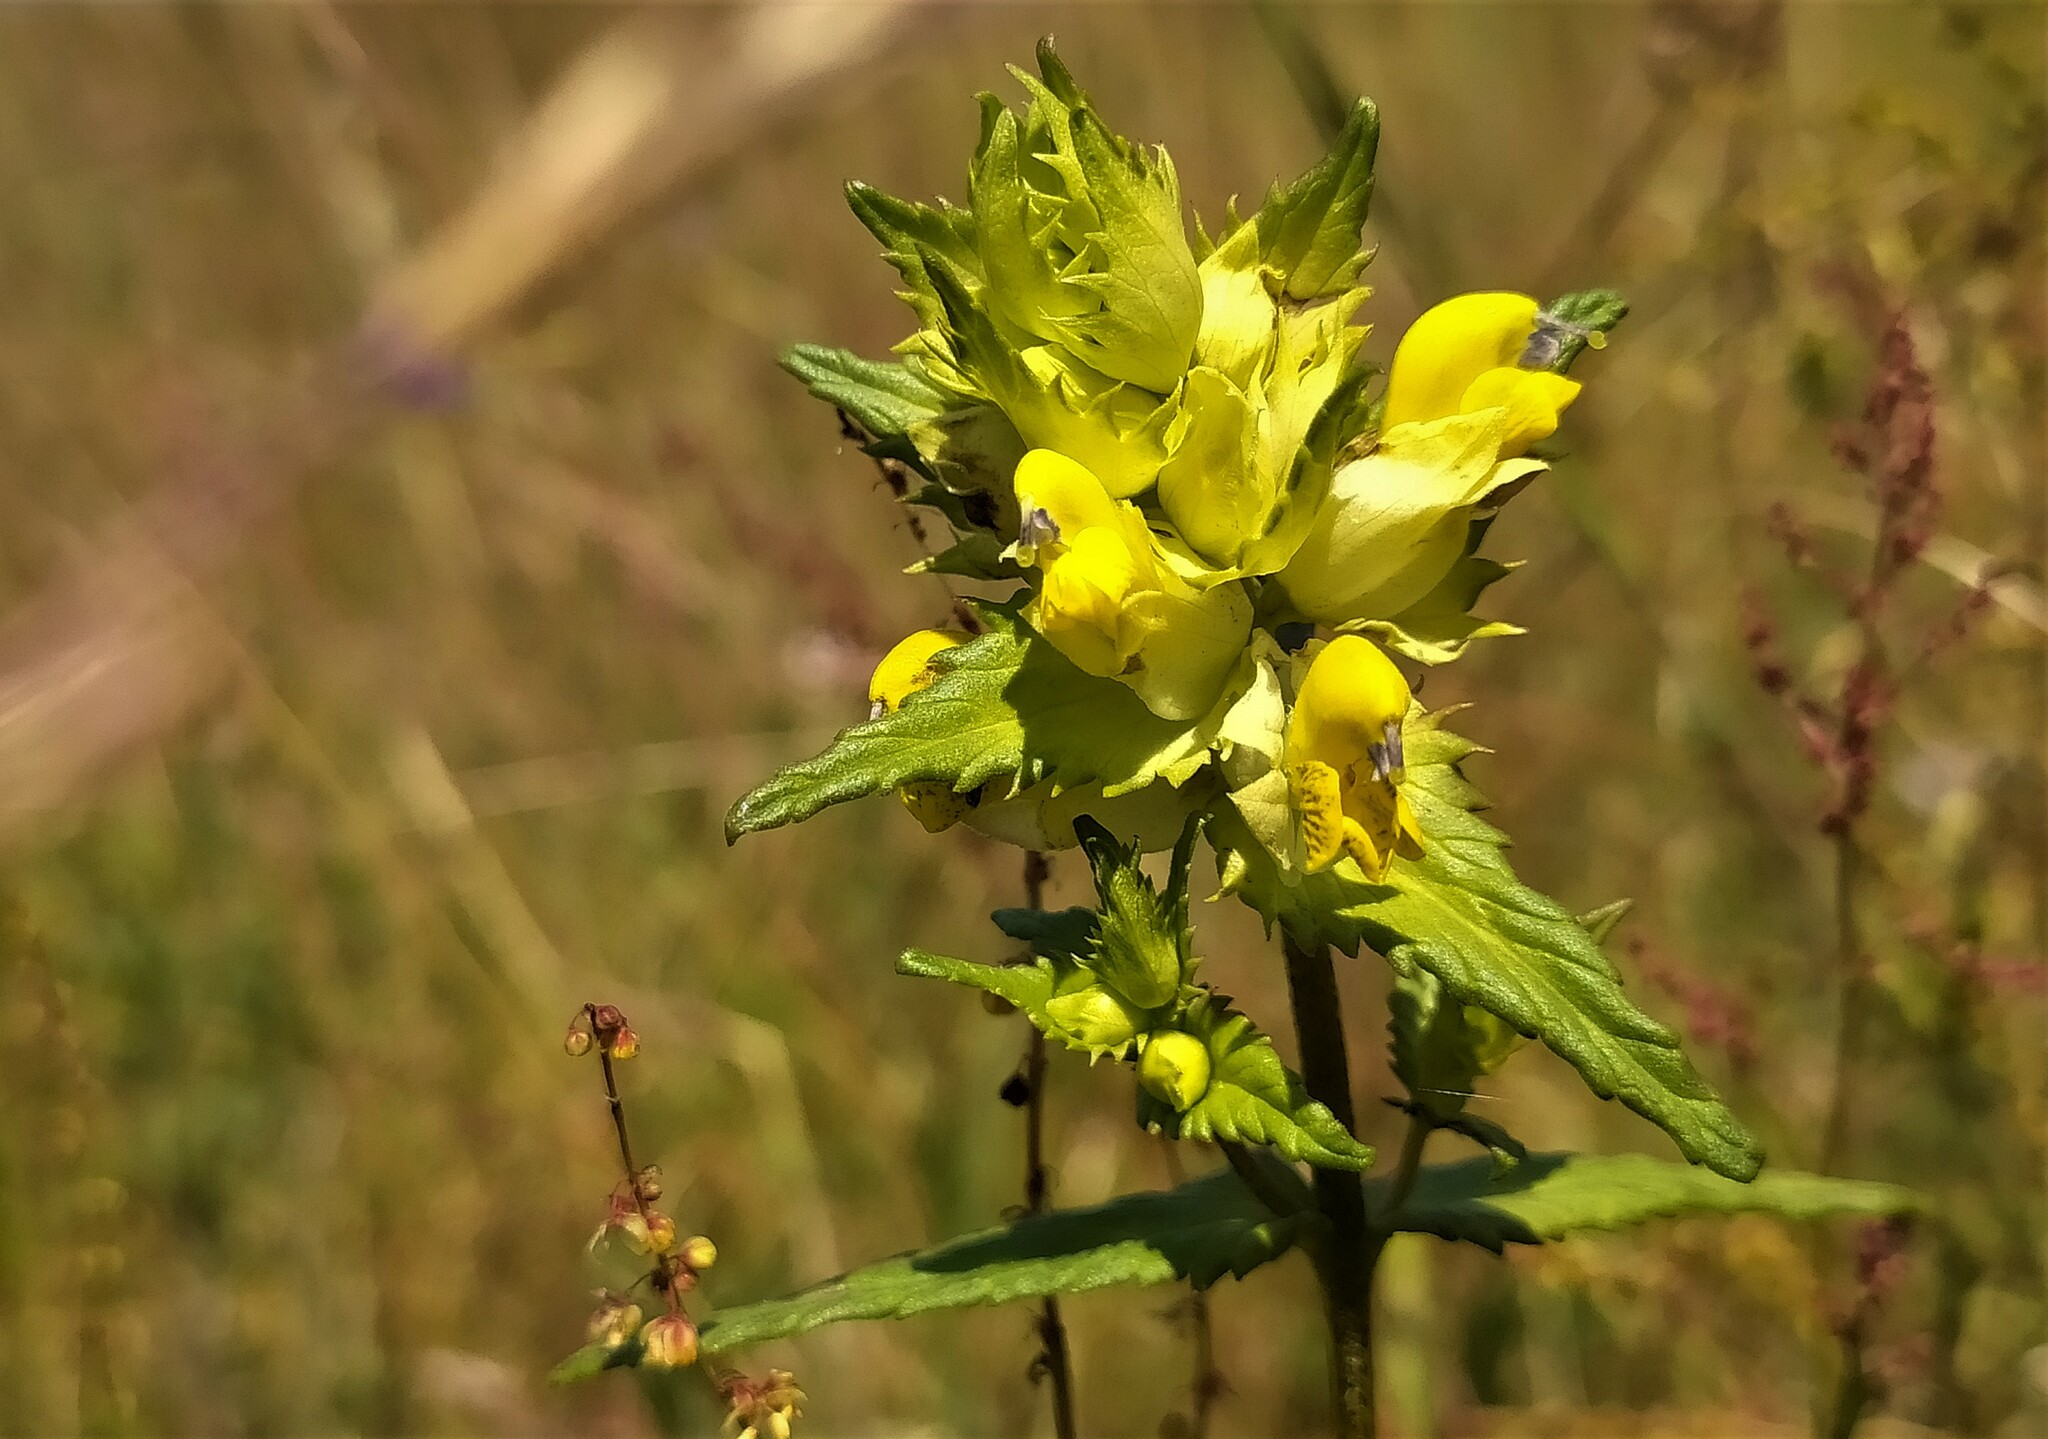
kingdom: Plantae
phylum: Tracheophyta
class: Magnoliopsida
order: Lamiales
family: Orobanchaceae
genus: Rhinanthus
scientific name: Rhinanthus serotinus
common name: Late-flowering yellow rattle
